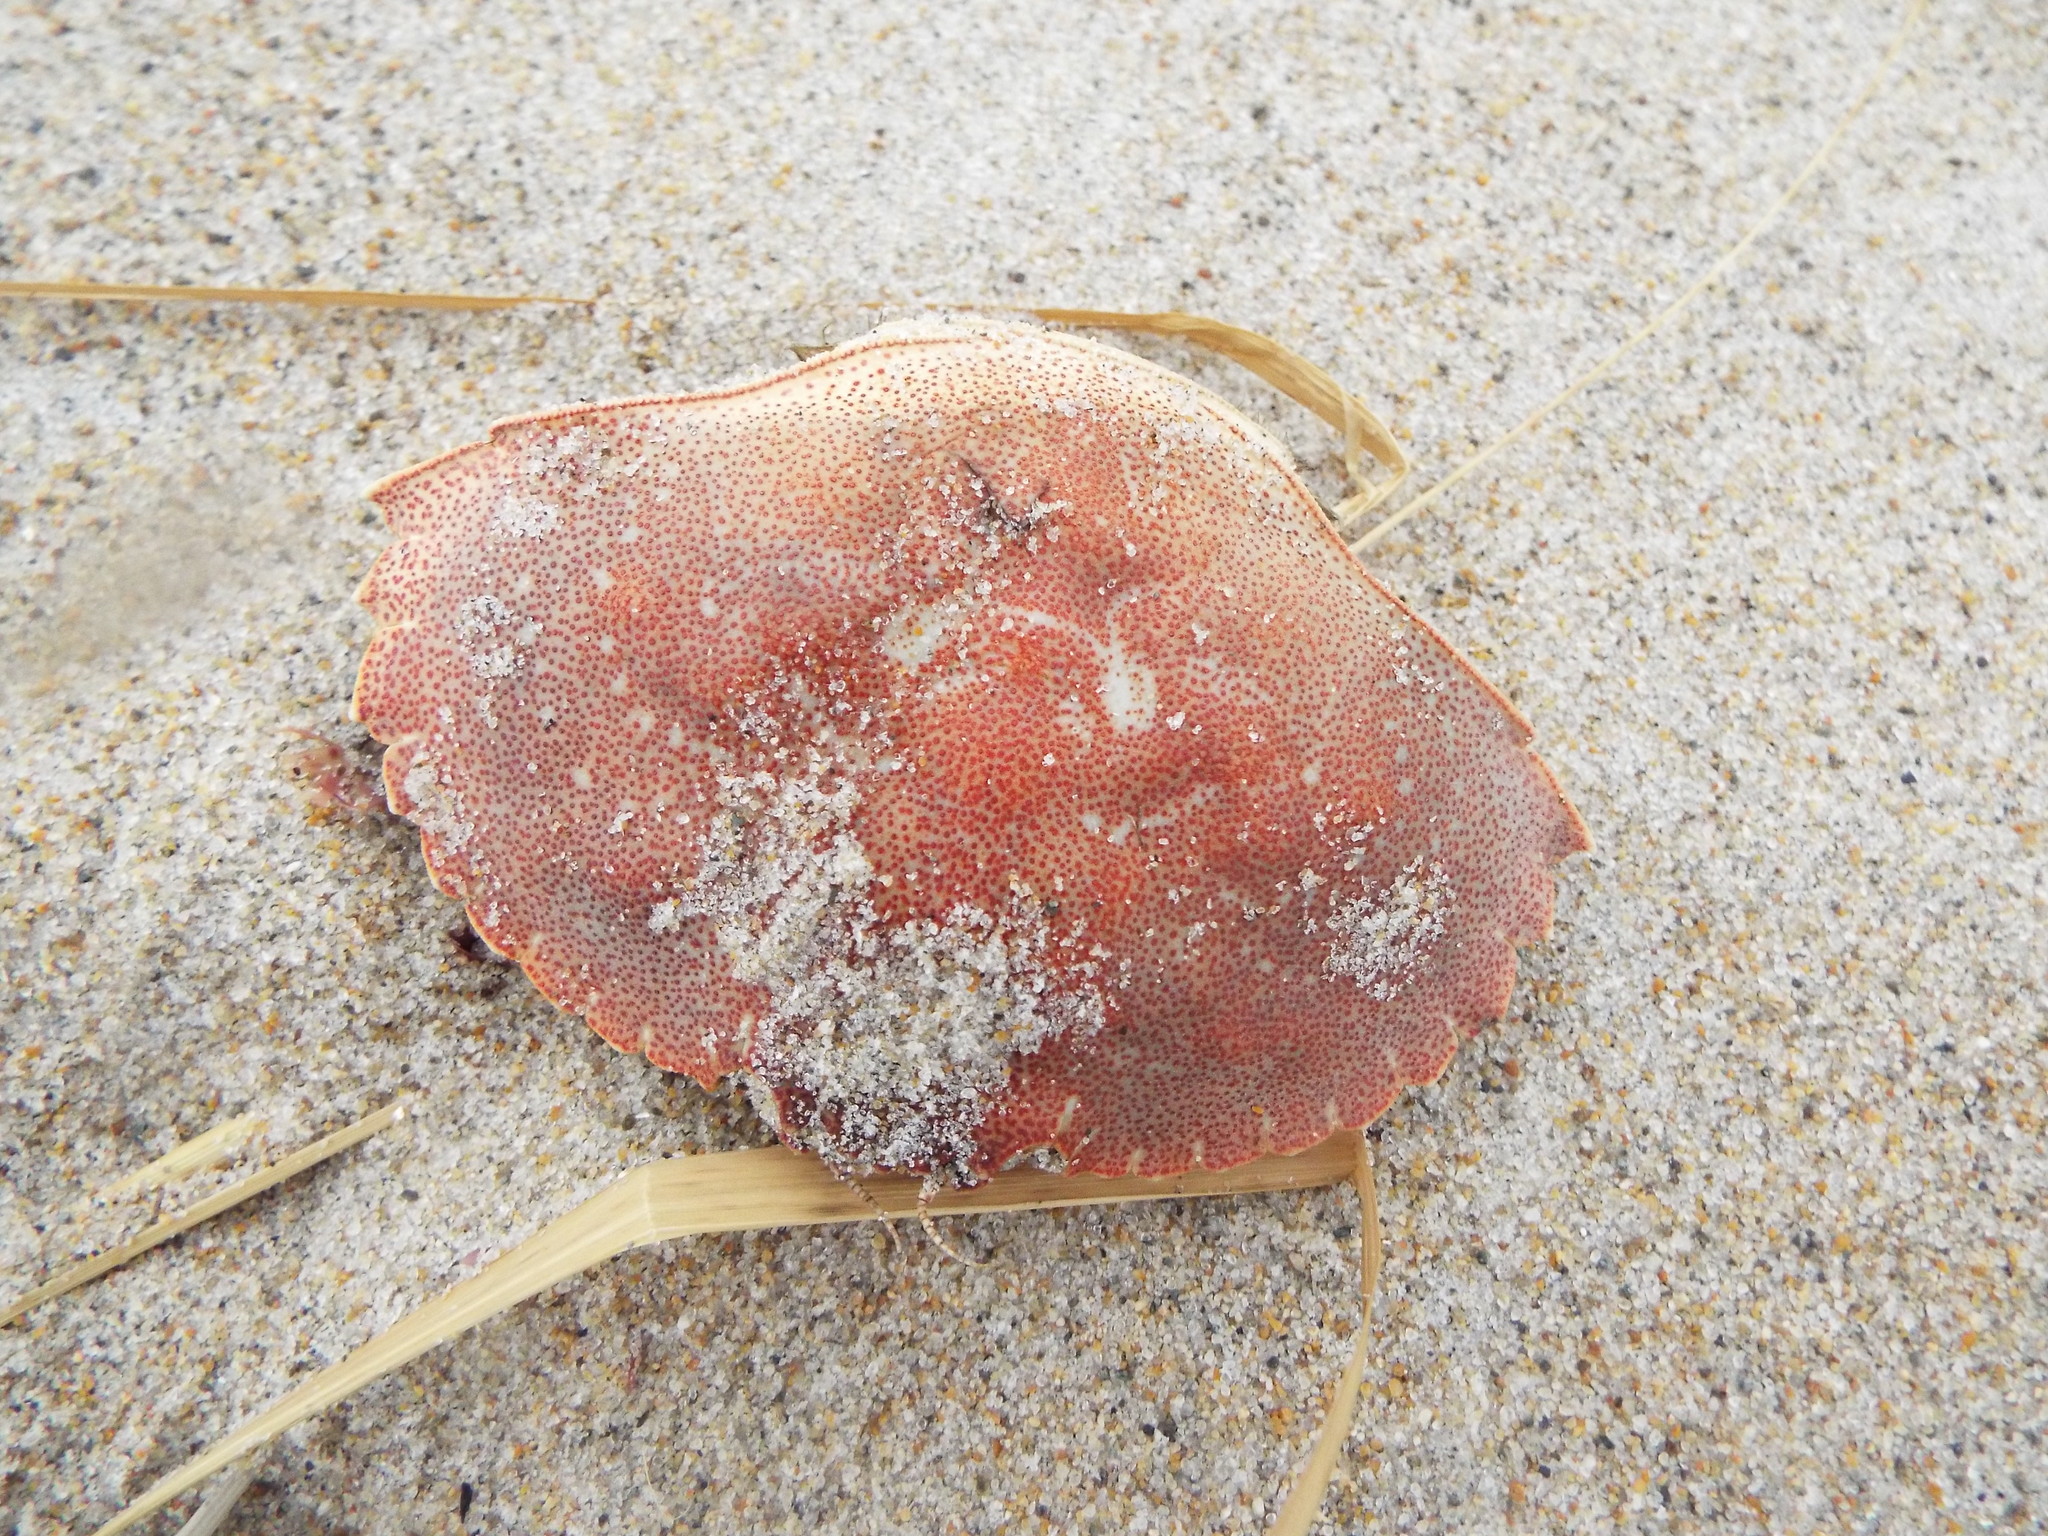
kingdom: Animalia
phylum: Arthropoda
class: Malacostraca
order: Decapoda
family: Cancridae
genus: Cancer
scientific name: Cancer irroratus
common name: Atlantic rock crab
